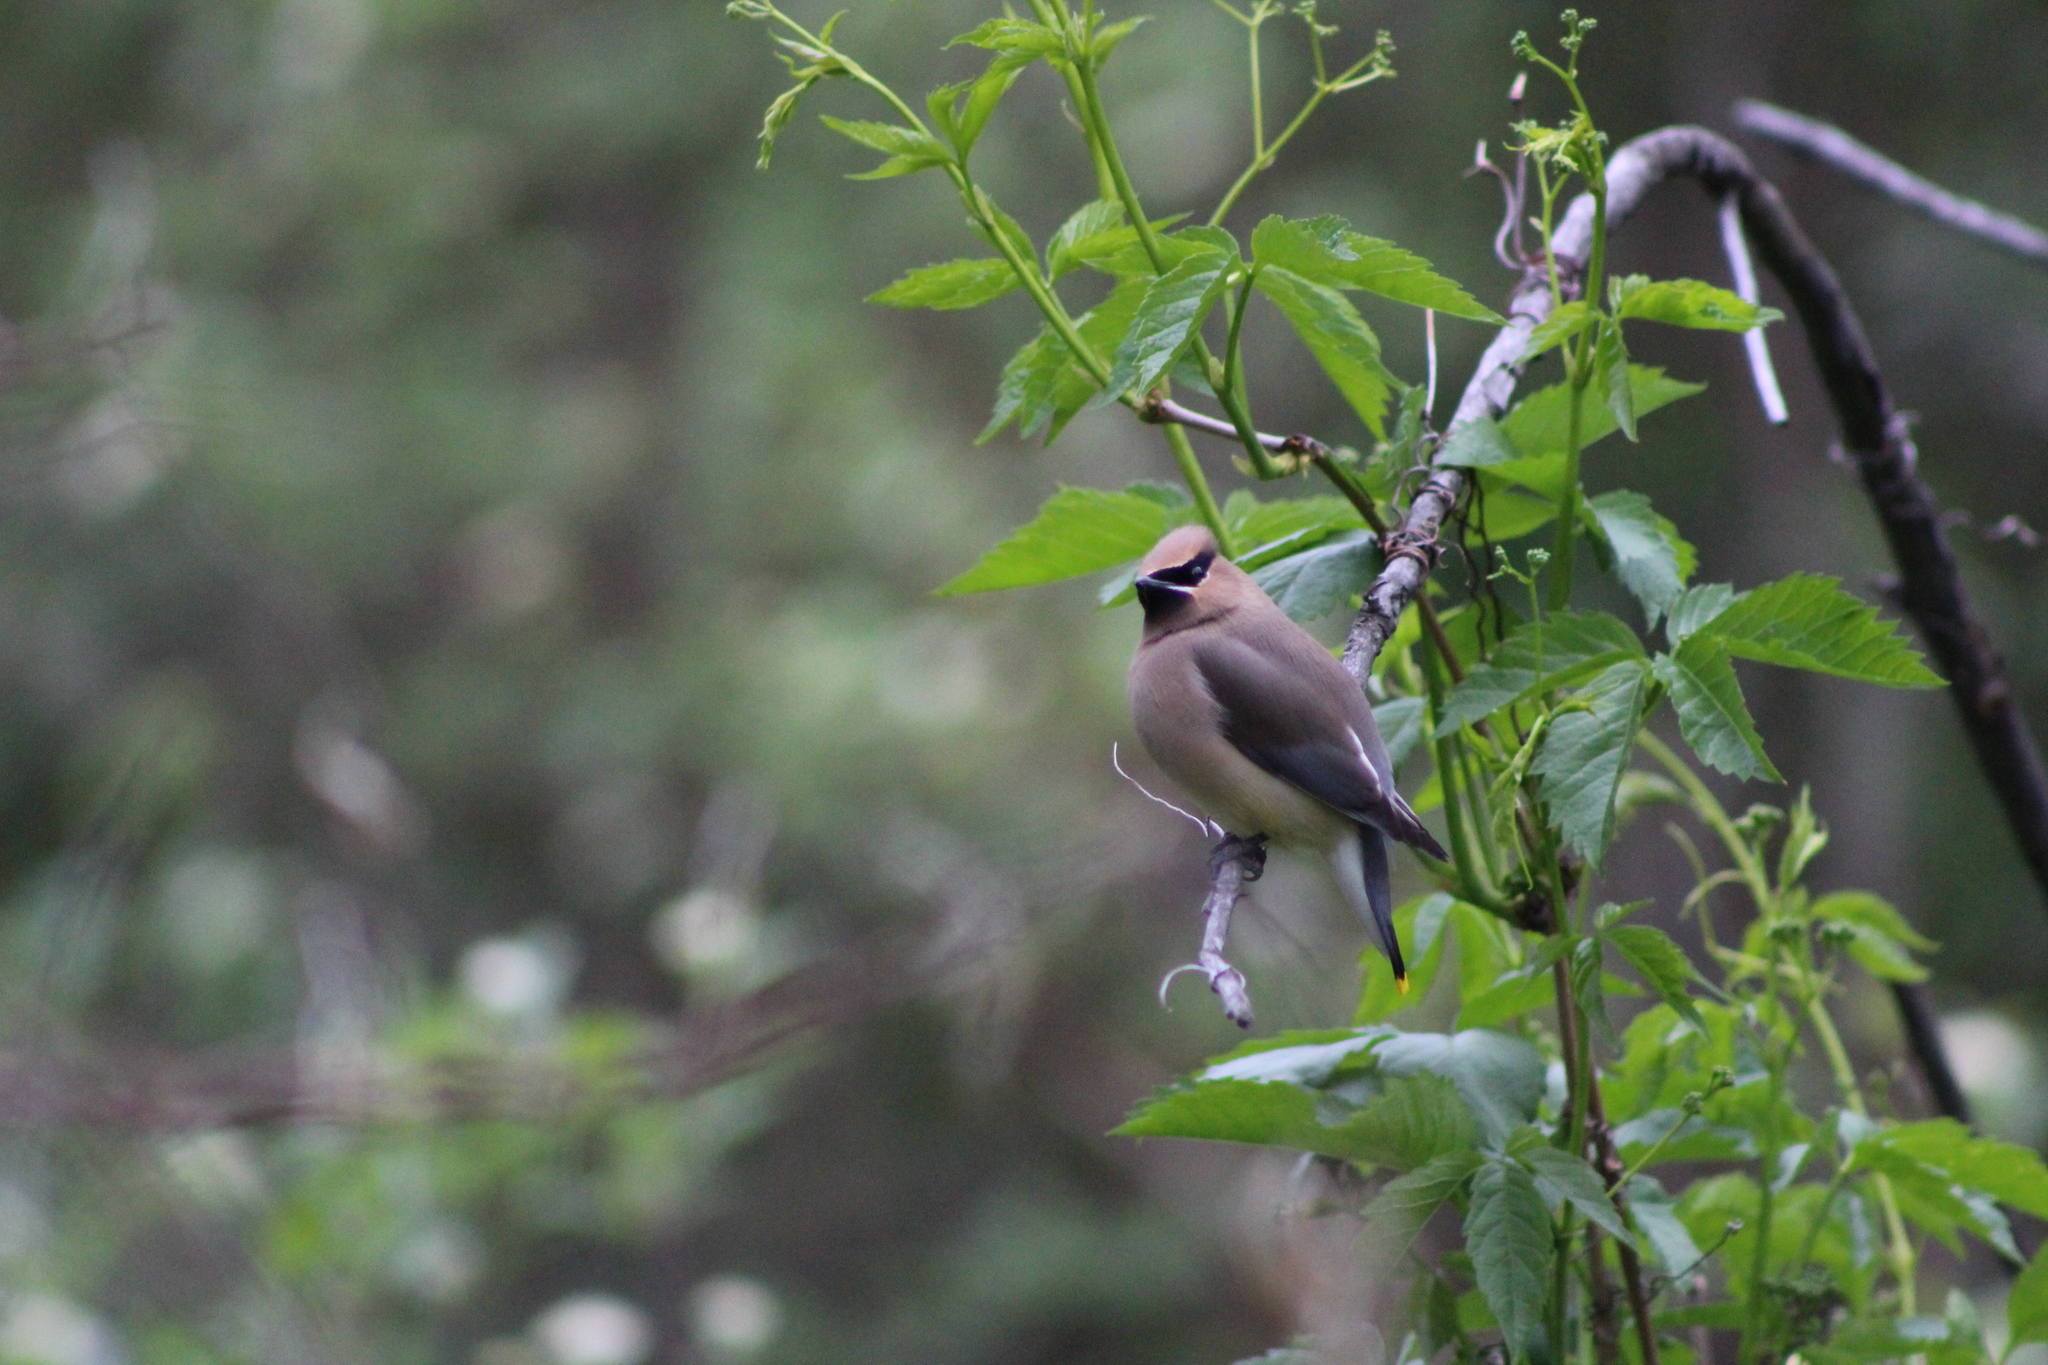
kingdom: Animalia
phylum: Chordata
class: Aves
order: Passeriformes
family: Bombycillidae
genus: Bombycilla
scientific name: Bombycilla cedrorum
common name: Cedar waxwing
